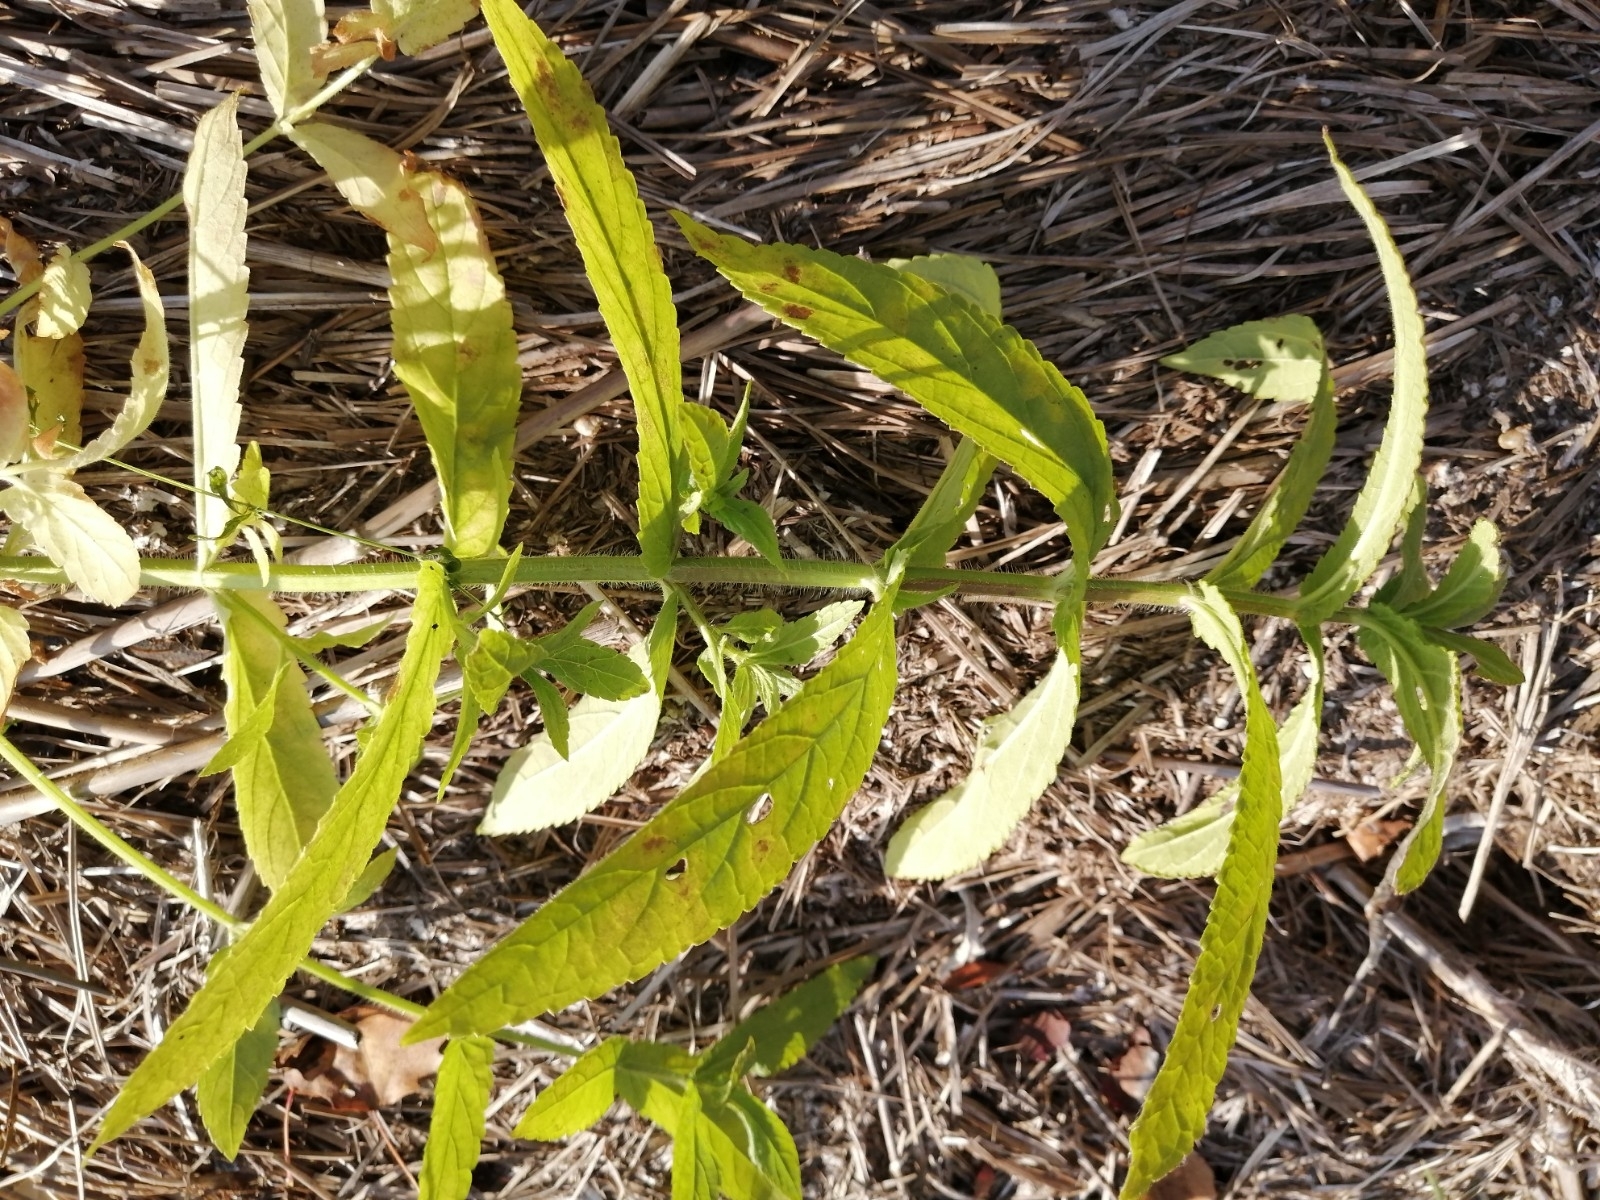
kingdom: Plantae
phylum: Tracheophyta
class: Magnoliopsida
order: Lamiales
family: Lamiaceae
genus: Stachys
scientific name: Stachys palustris
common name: Marsh woundwort
